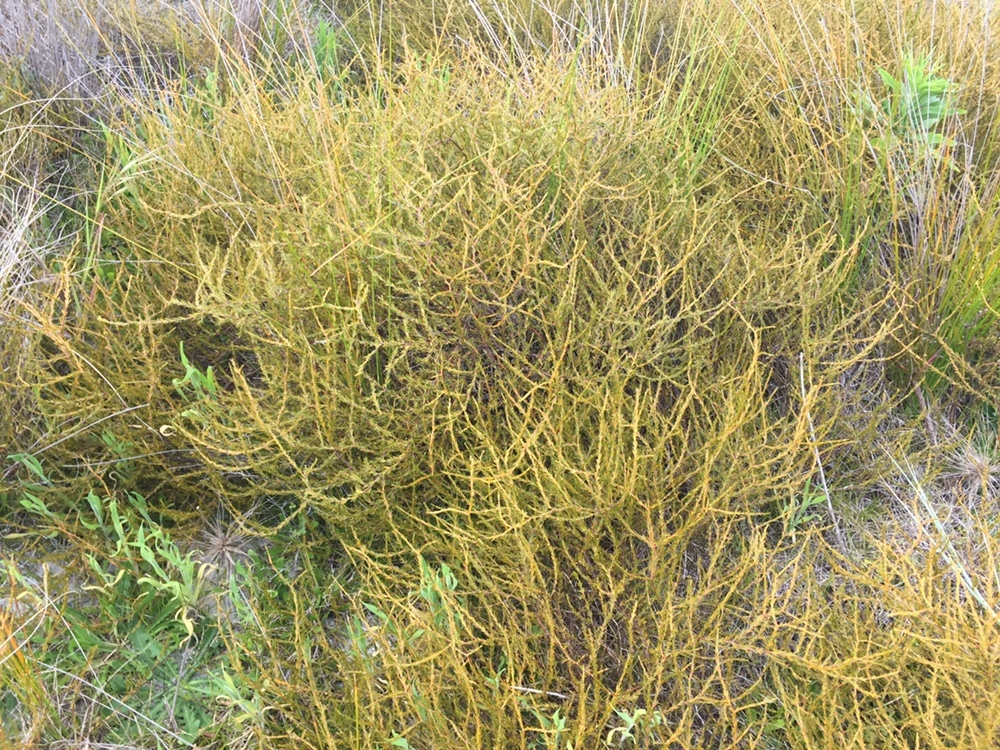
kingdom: Plantae
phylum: Tracheophyta
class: Magnoliopsida
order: Gentianales
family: Rubiaceae
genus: Coprosma
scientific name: Coprosma acerosa
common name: Sand coprosma
